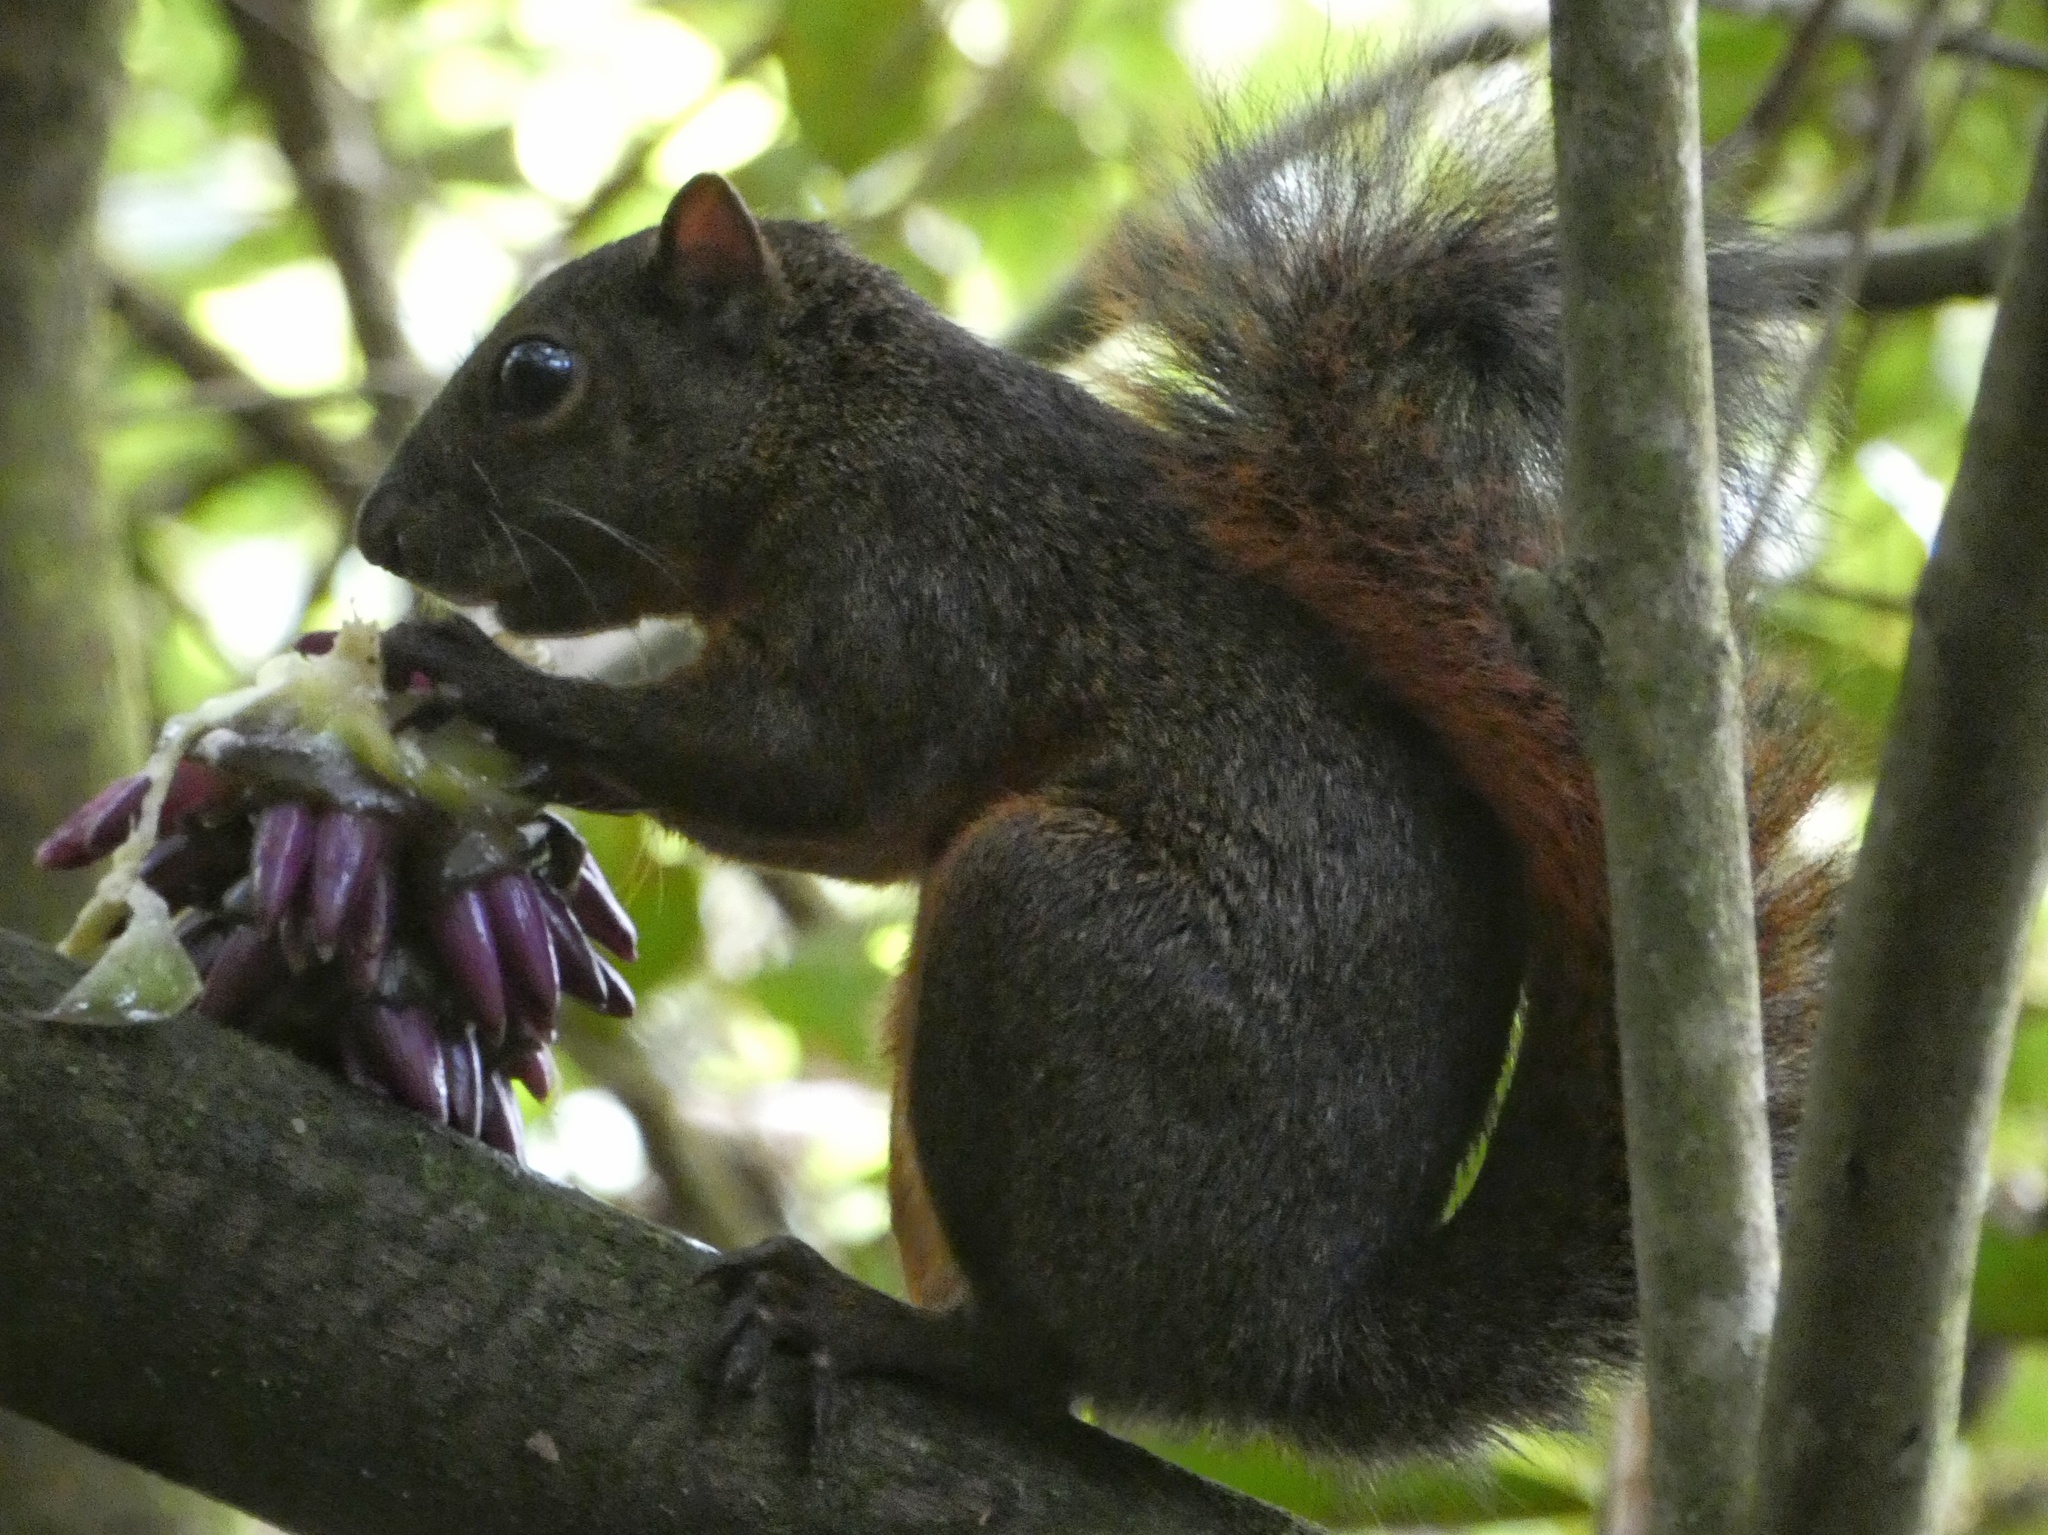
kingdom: Animalia
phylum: Chordata
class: Mammalia
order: Rodentia
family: Sciuridae
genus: Sciurus
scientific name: Sciurus granatensis
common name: Red-tailed squirrel
